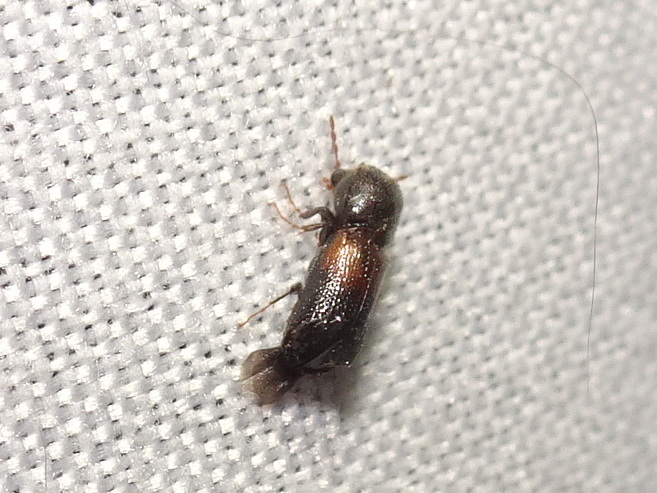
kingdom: Animalia
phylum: Arthropoda
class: Insecta
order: Coleoptera
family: Bostrichidae
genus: Xylobiops
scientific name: Xylobiops basilaris
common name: Red-shouldered bostrichid
